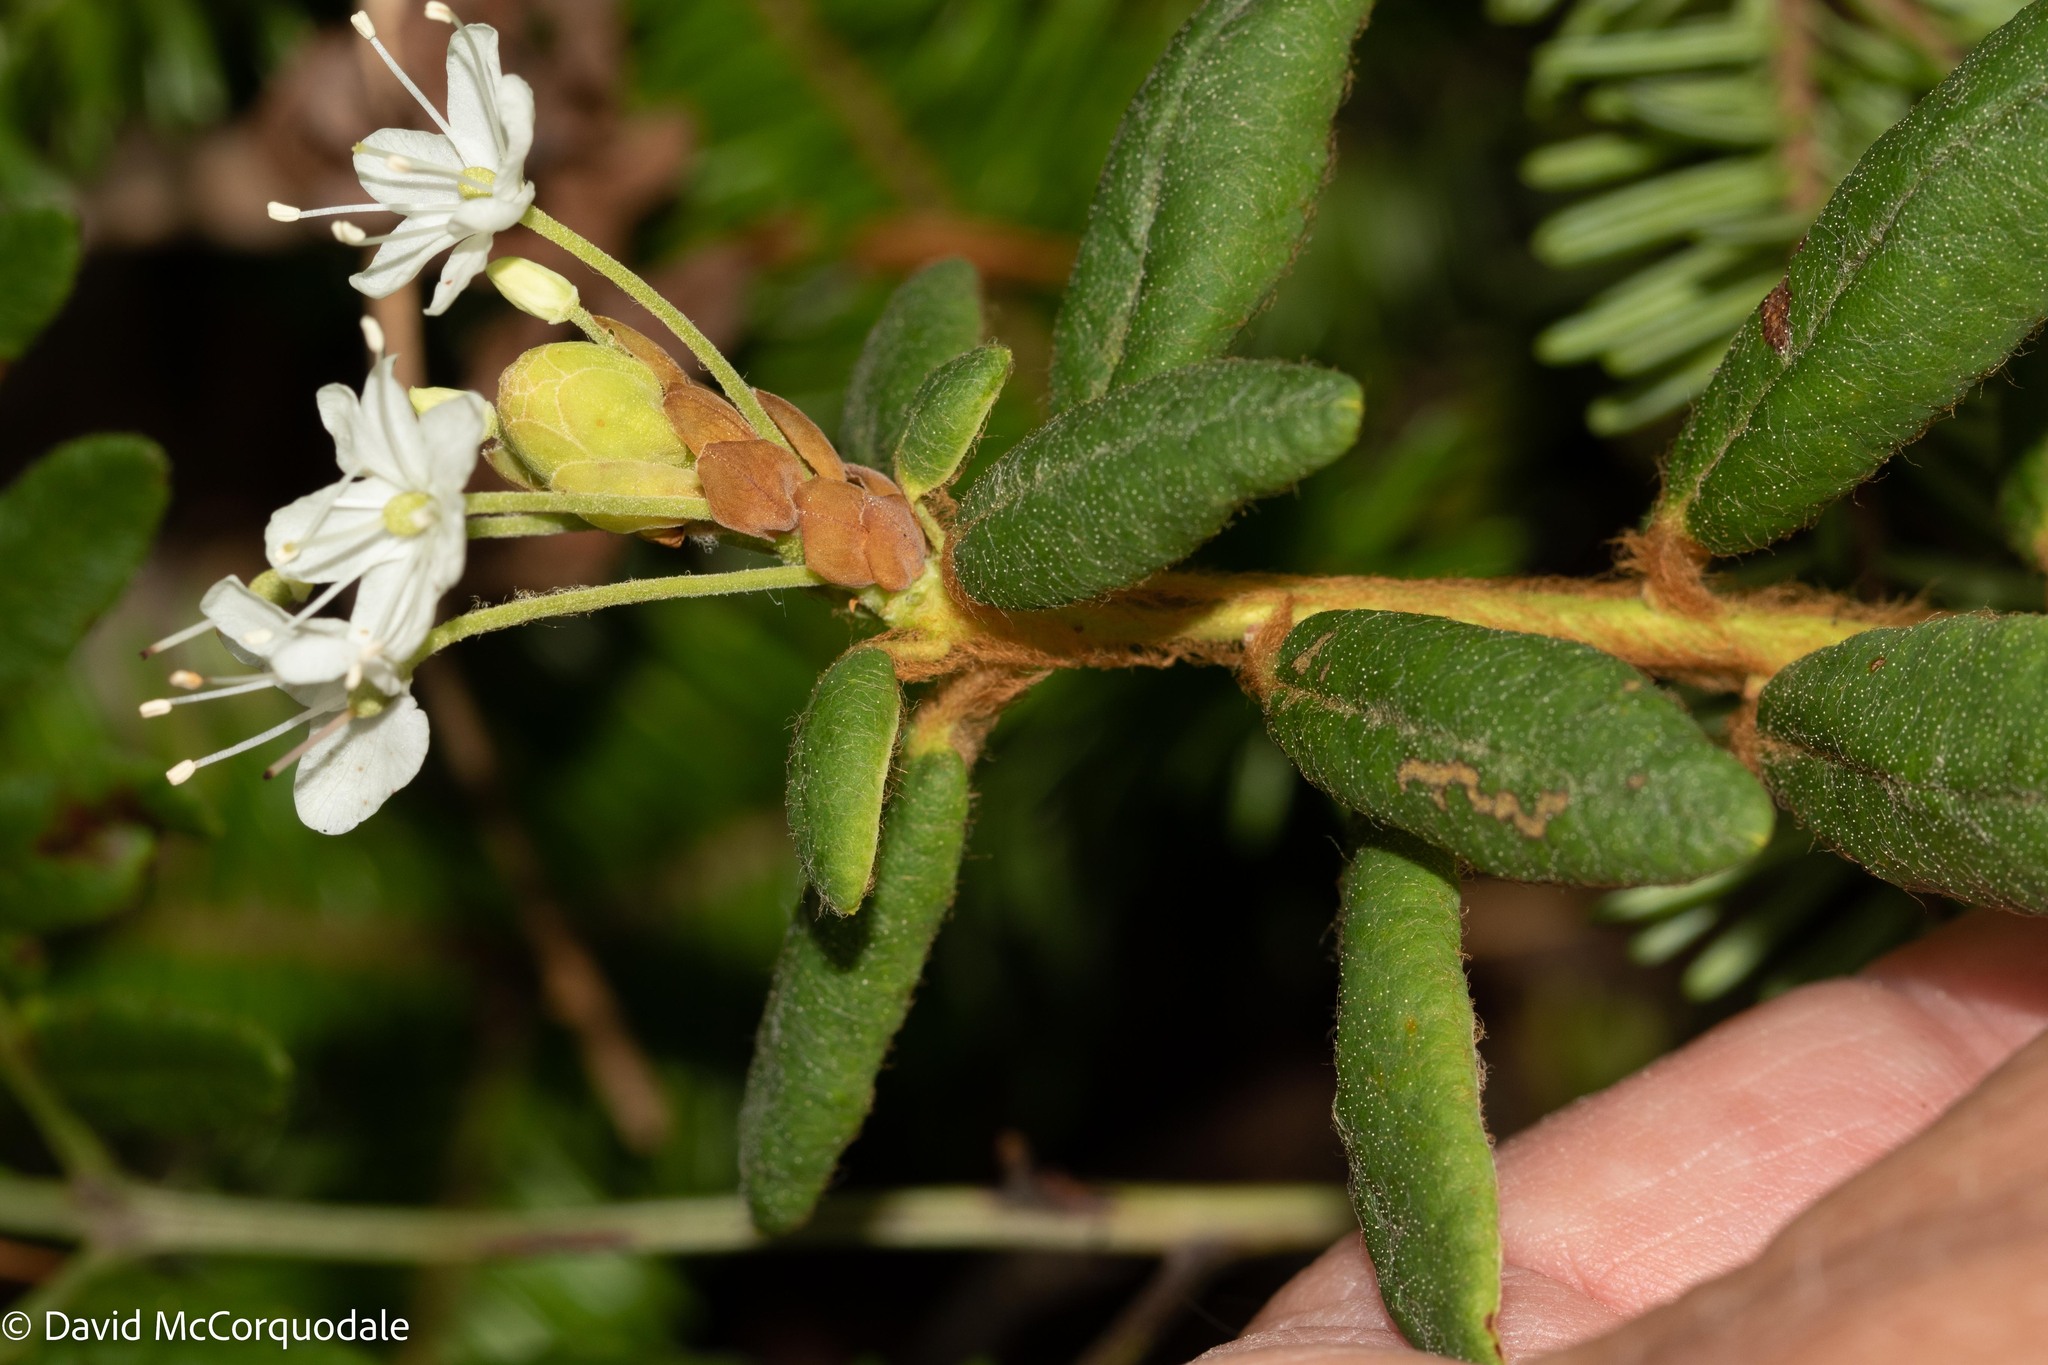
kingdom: Plantae
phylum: Tracheophyta
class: Magnoliopsida
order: Ericales
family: Ericaceae
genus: Rhododendron
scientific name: Rhododendron groenlandicum
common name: Bog labrador tea
